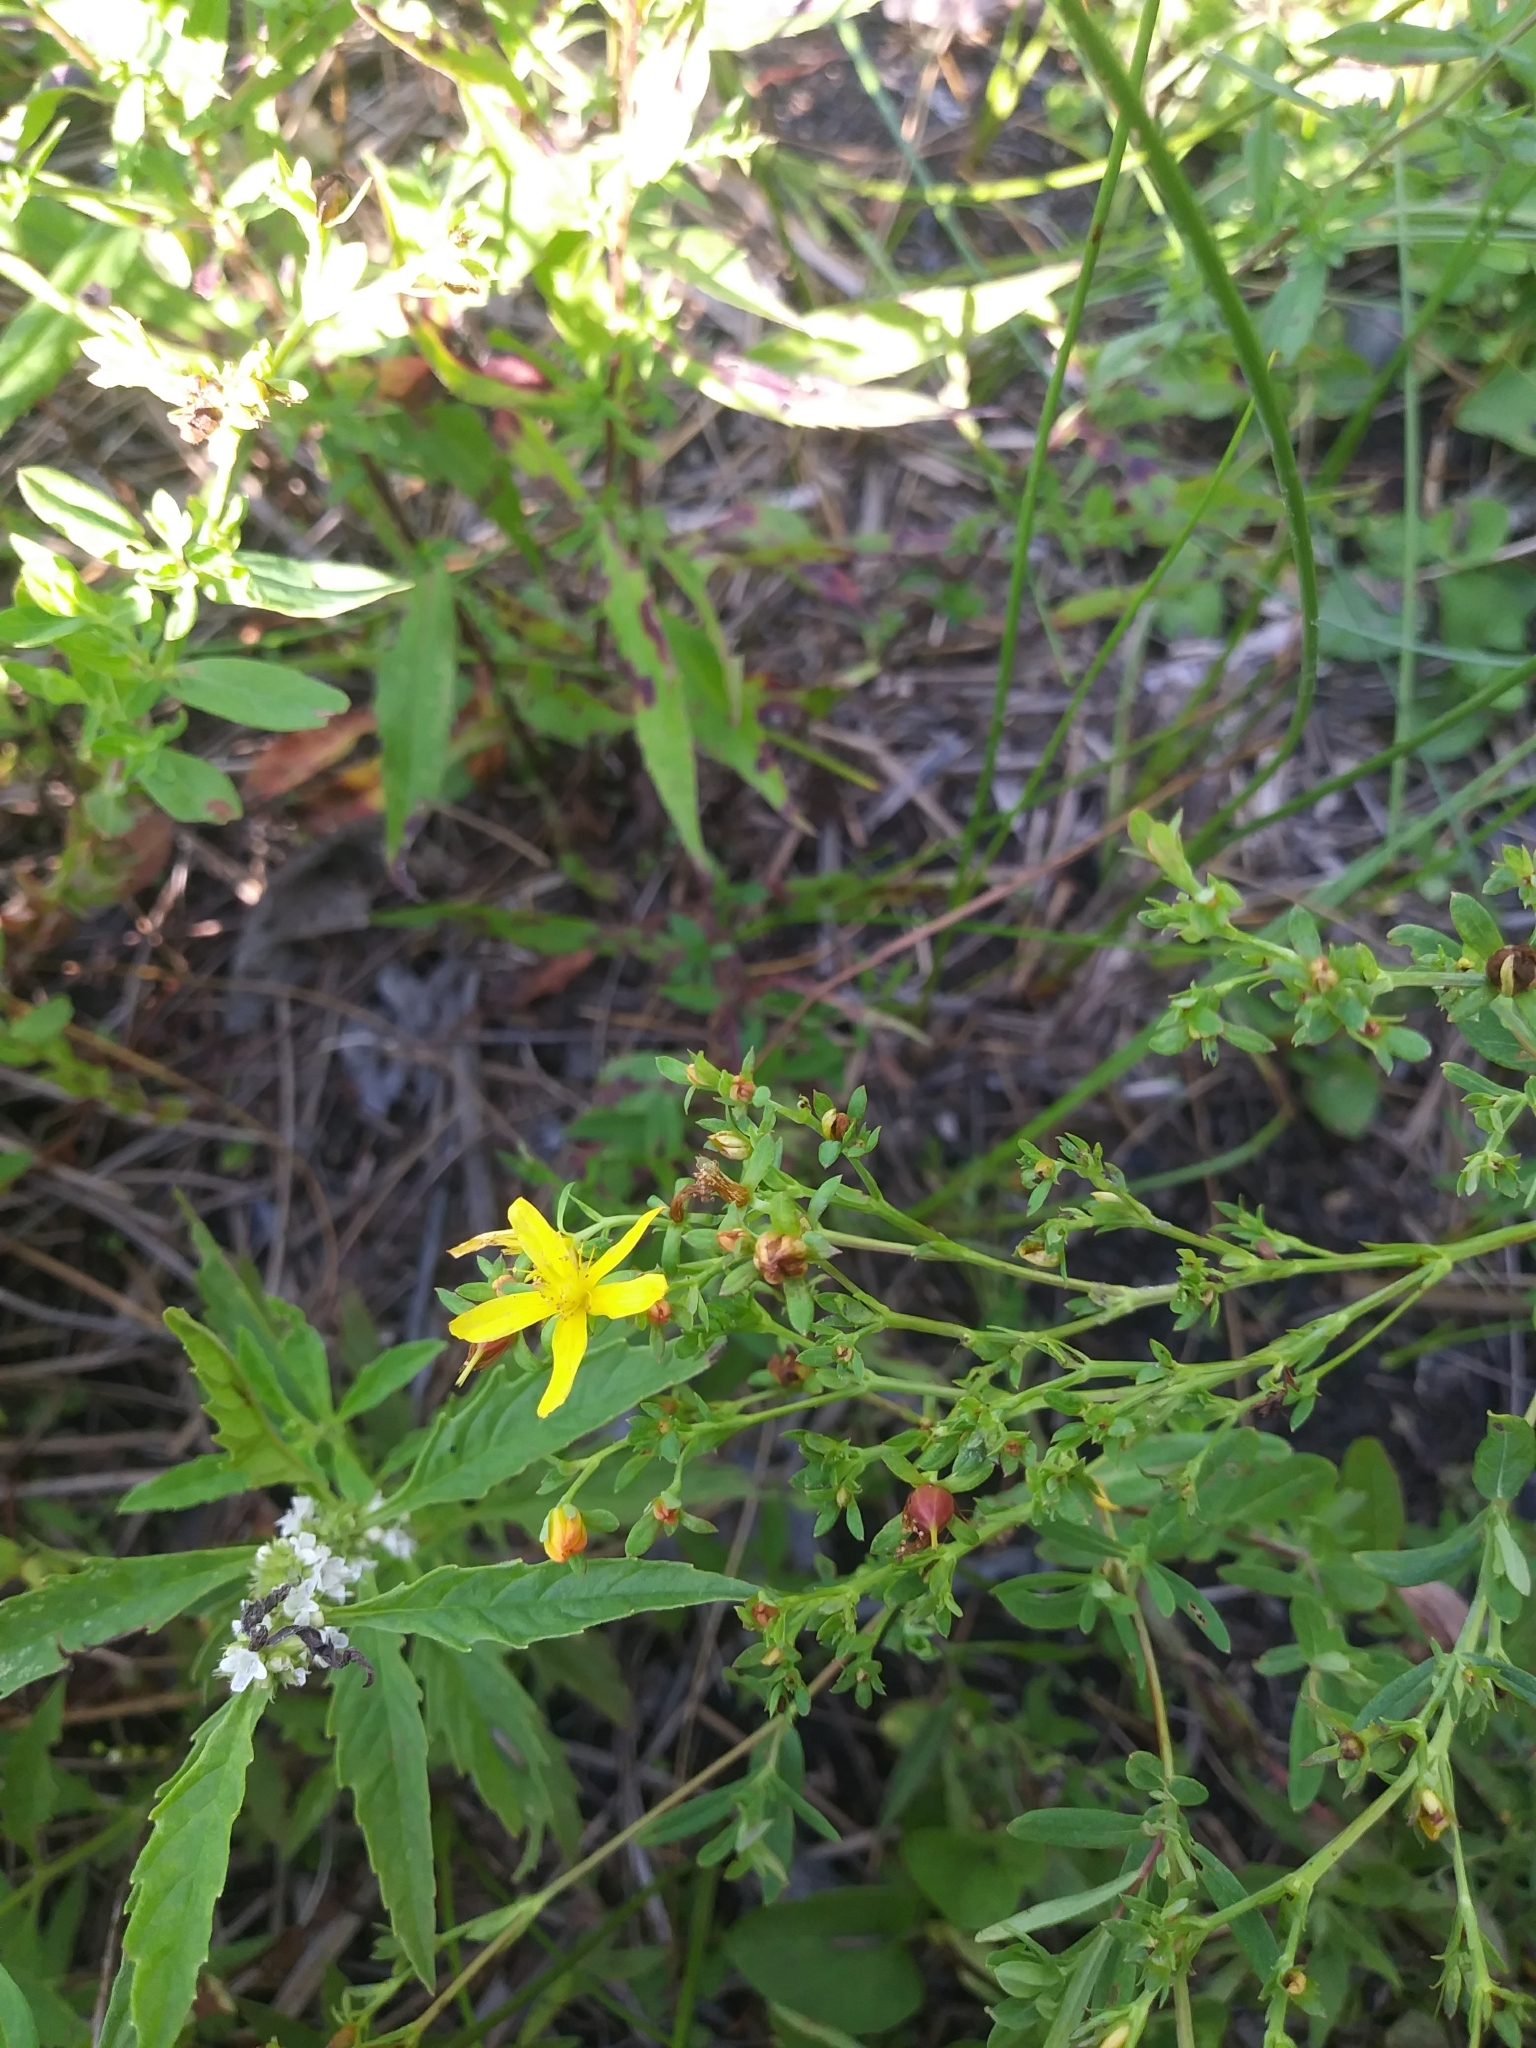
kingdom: Plantae
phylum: Tracheophyta
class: Magnoliopsida
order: Malpighiales
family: Hypericaceae
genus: Hypericum
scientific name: Hypericum ellipticum
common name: Elliptic st. john's-wort
